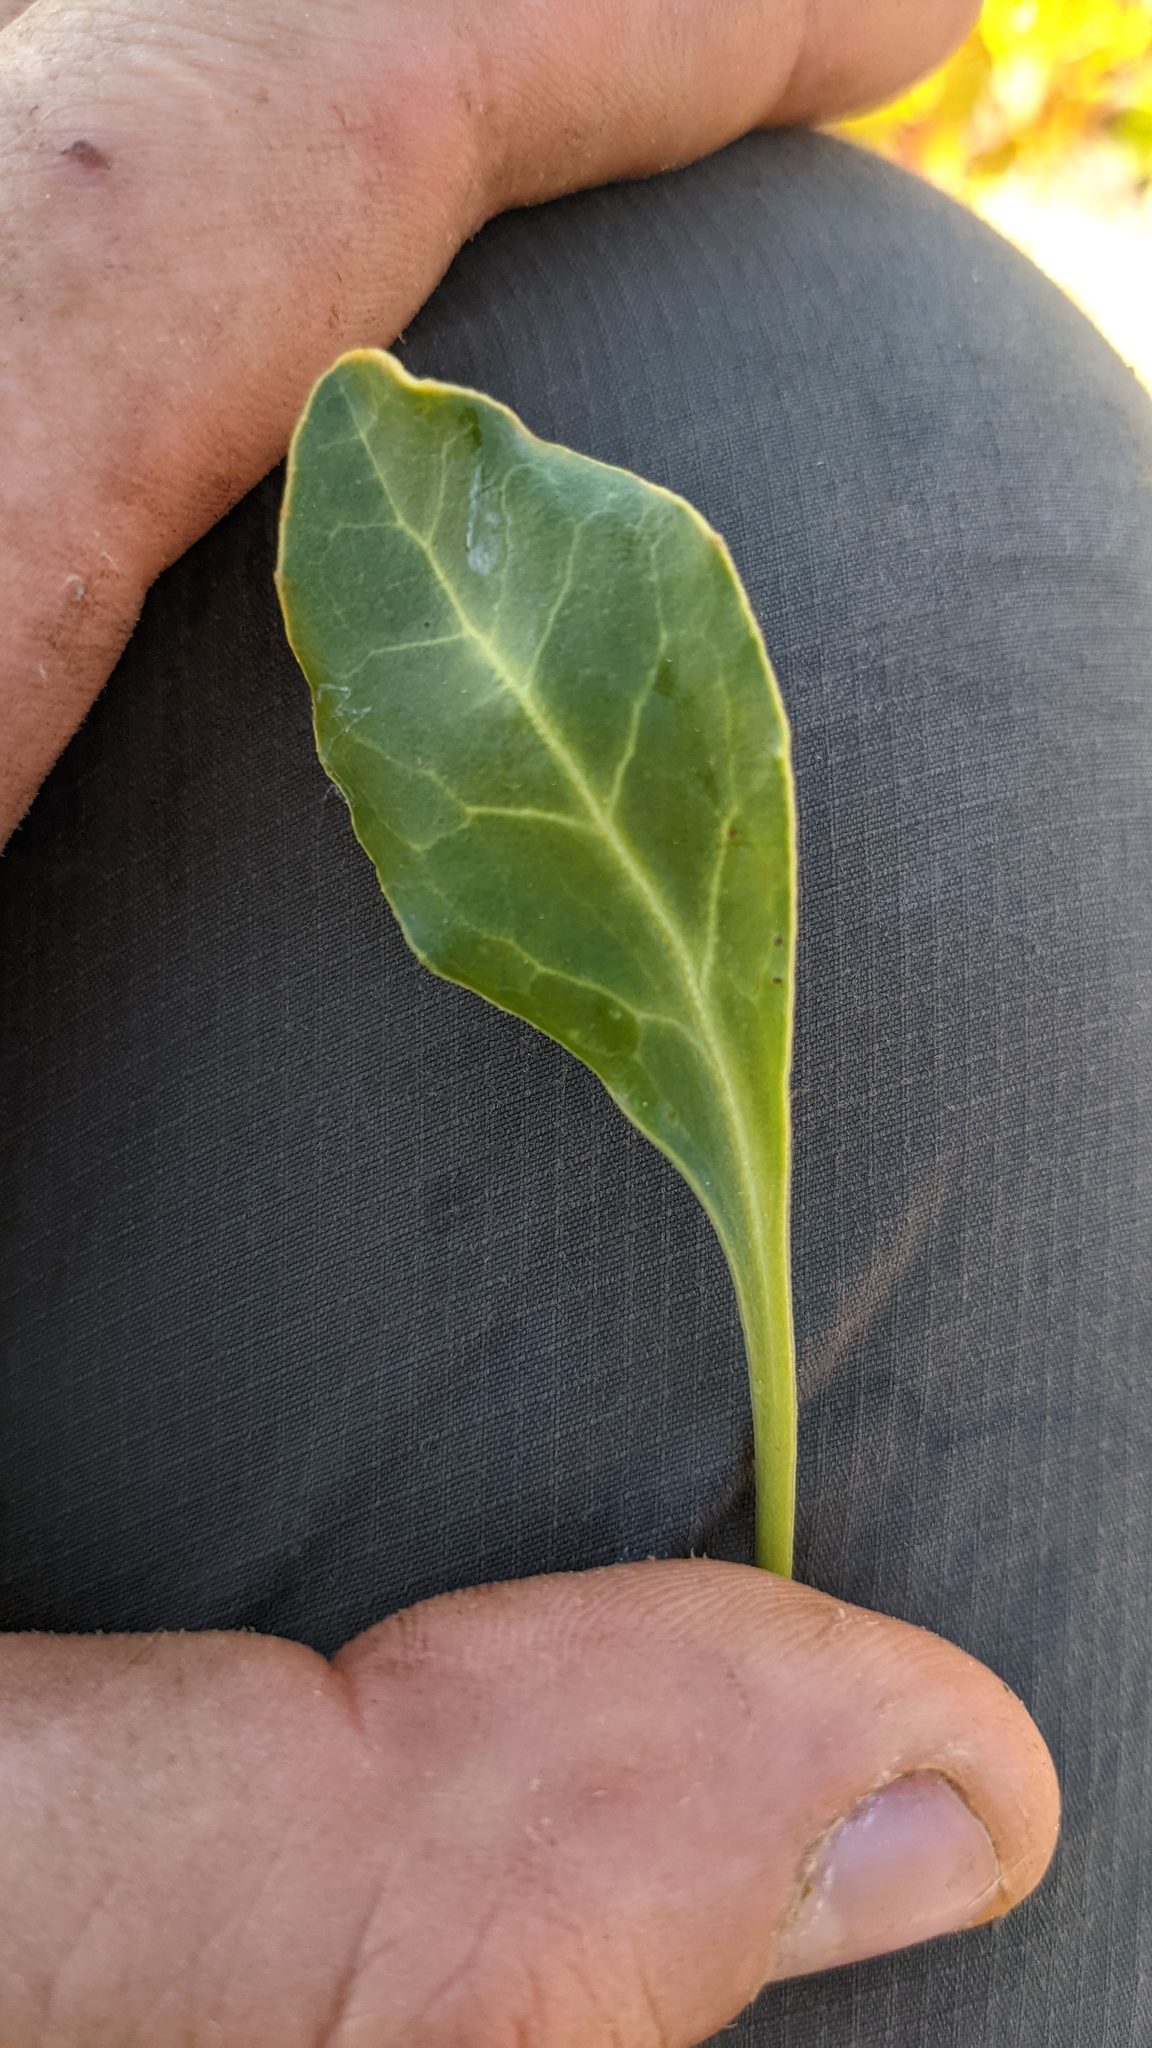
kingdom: Plantae
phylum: Tracheophyta
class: Magnoliopsida
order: Ericales
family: Ericaceae
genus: Pyrola
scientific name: Pyrola dentata
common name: Tooth-leaved wintergreen
